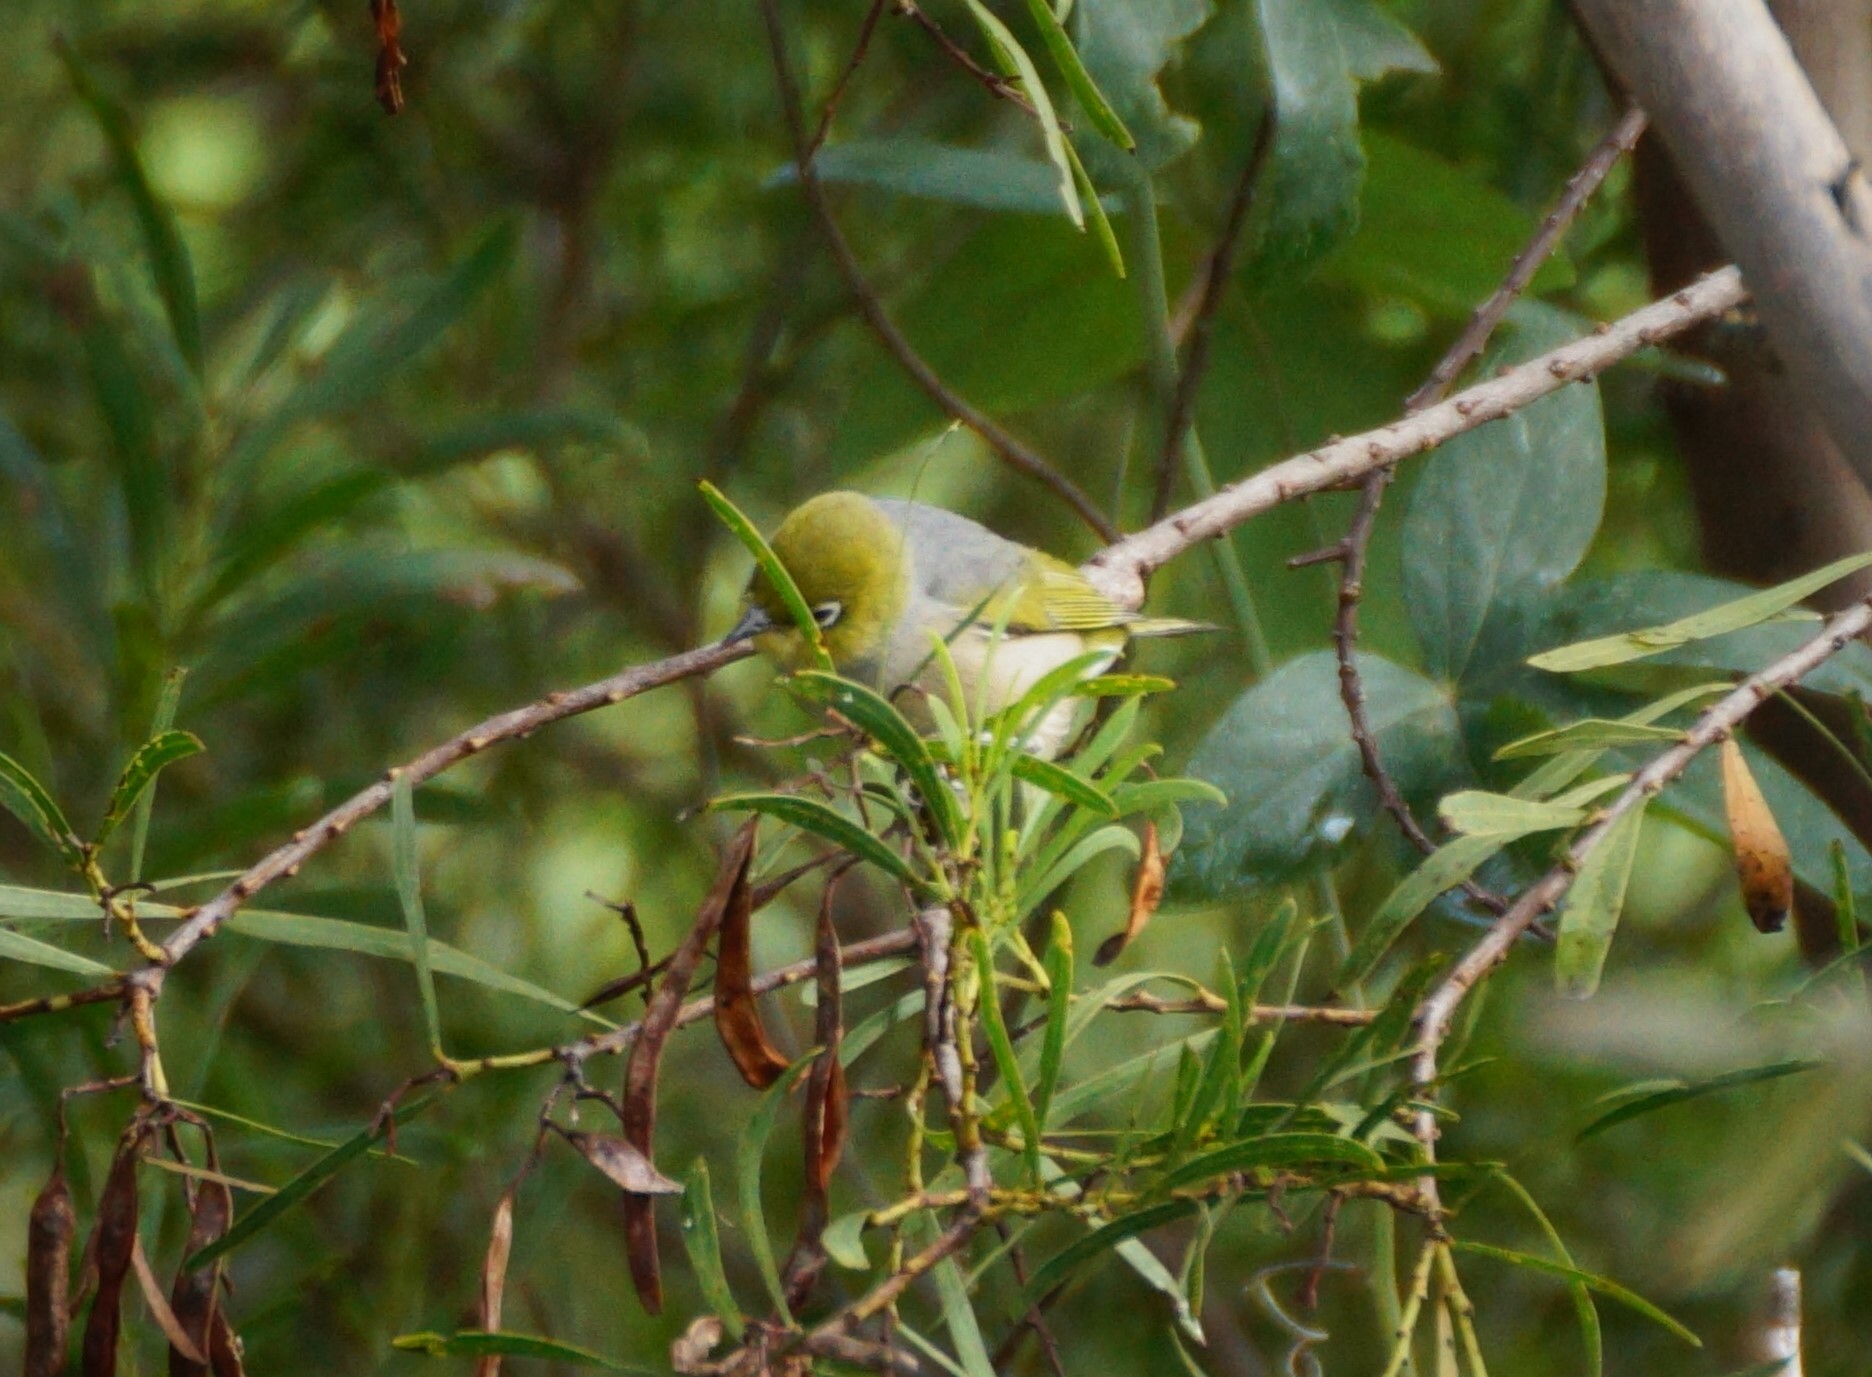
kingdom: Animalia
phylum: Chordata
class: Aves
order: Passeriformes
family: Zosteropidae
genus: Zosterops
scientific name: Zosterops lateralis
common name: Silvereye
